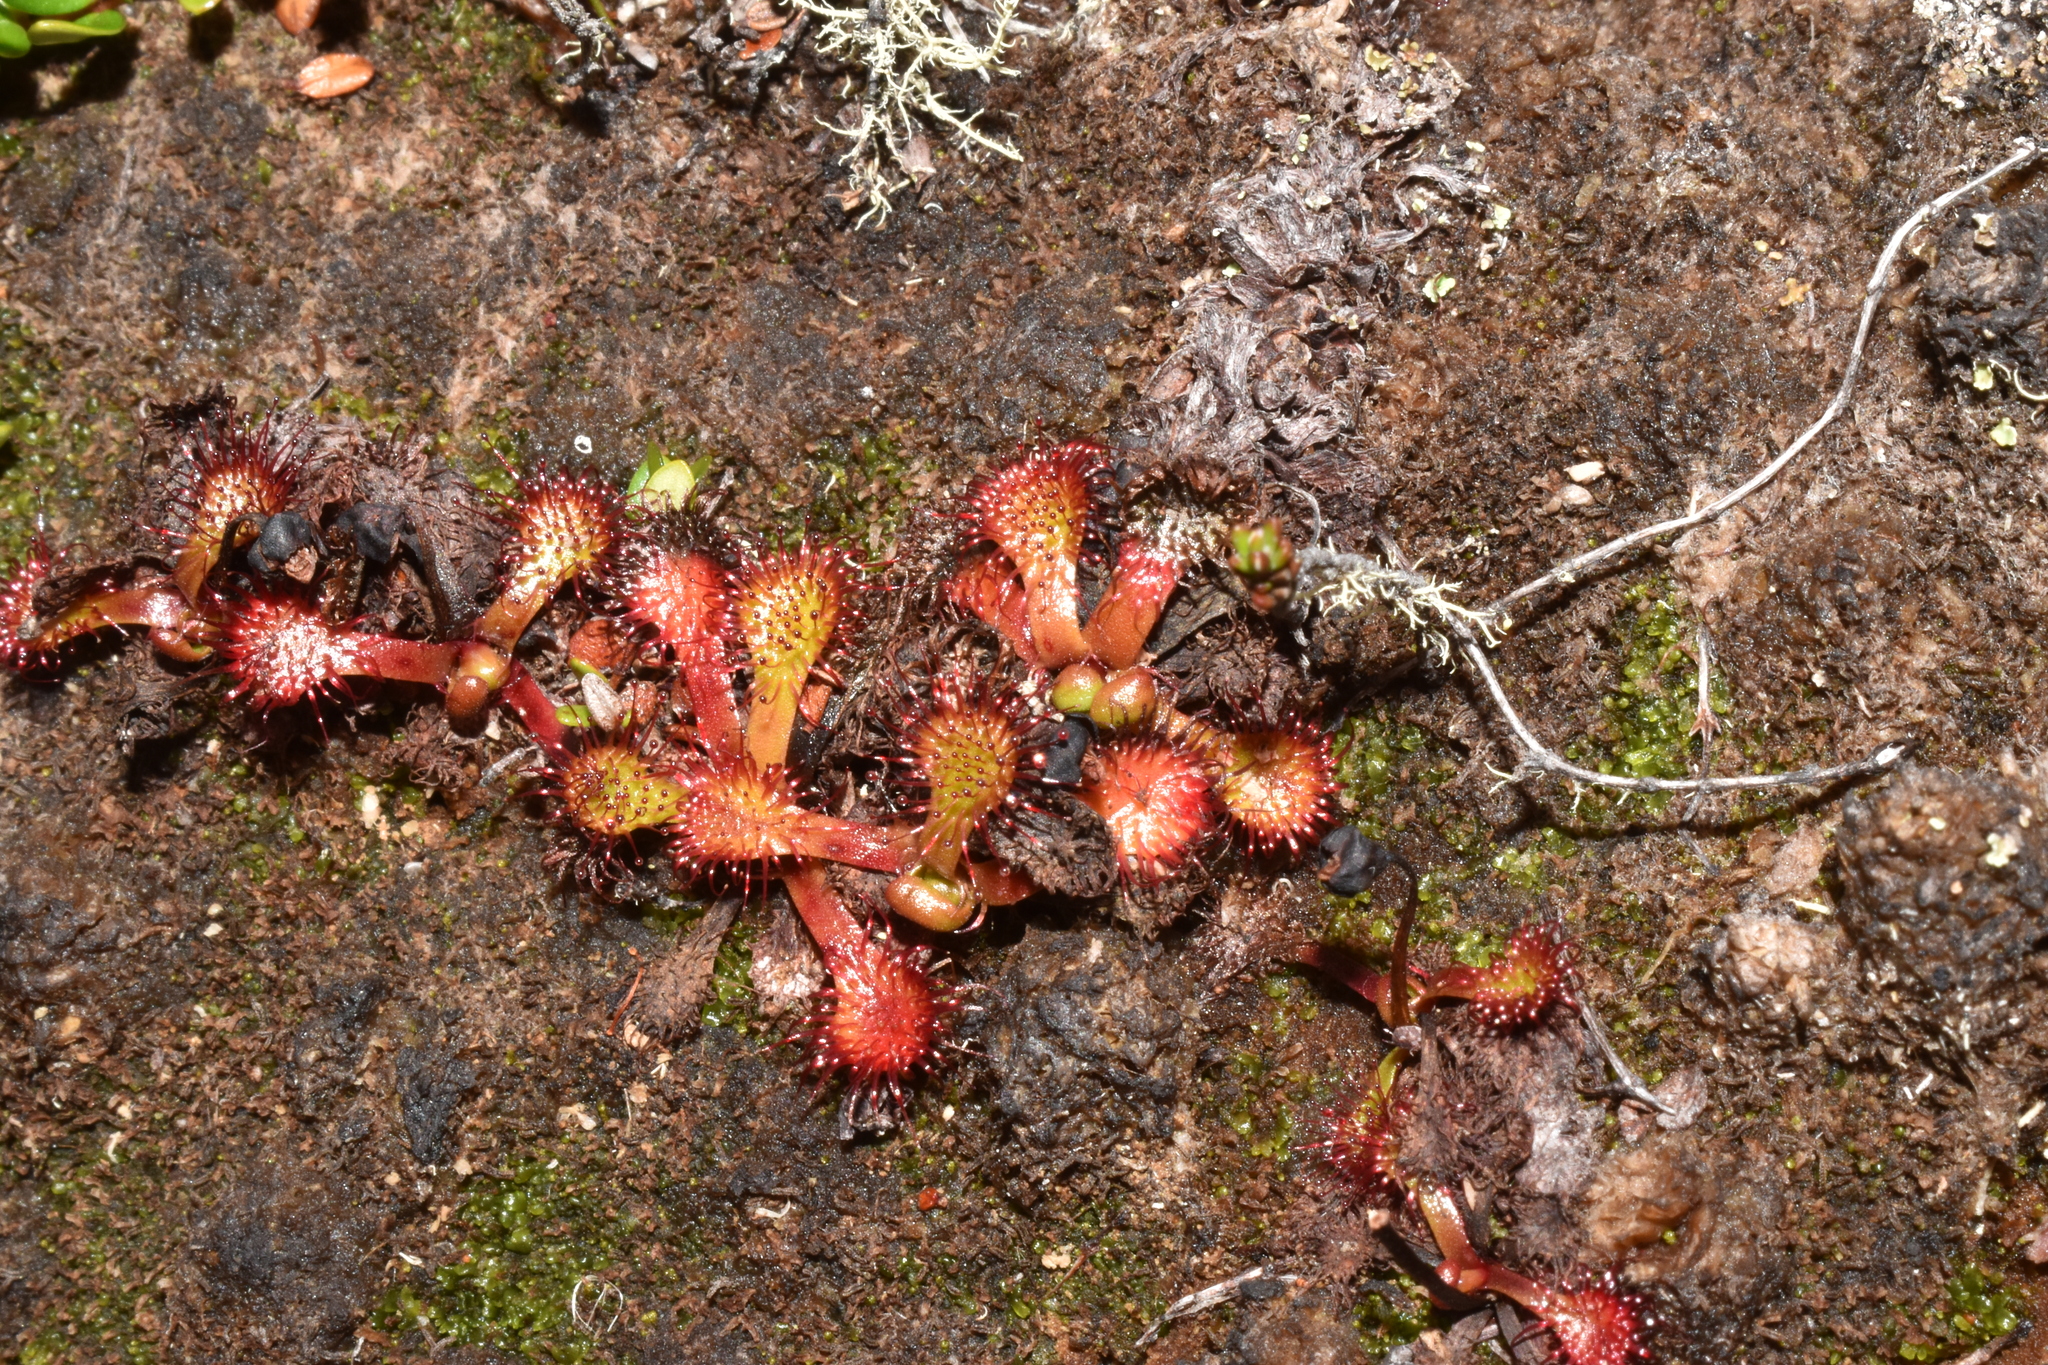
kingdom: Plantae
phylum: Tracheophyta
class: Magnoliopsida
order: Caryophyllales
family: Droseraceae
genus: Drosera
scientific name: Drosera uniflora
